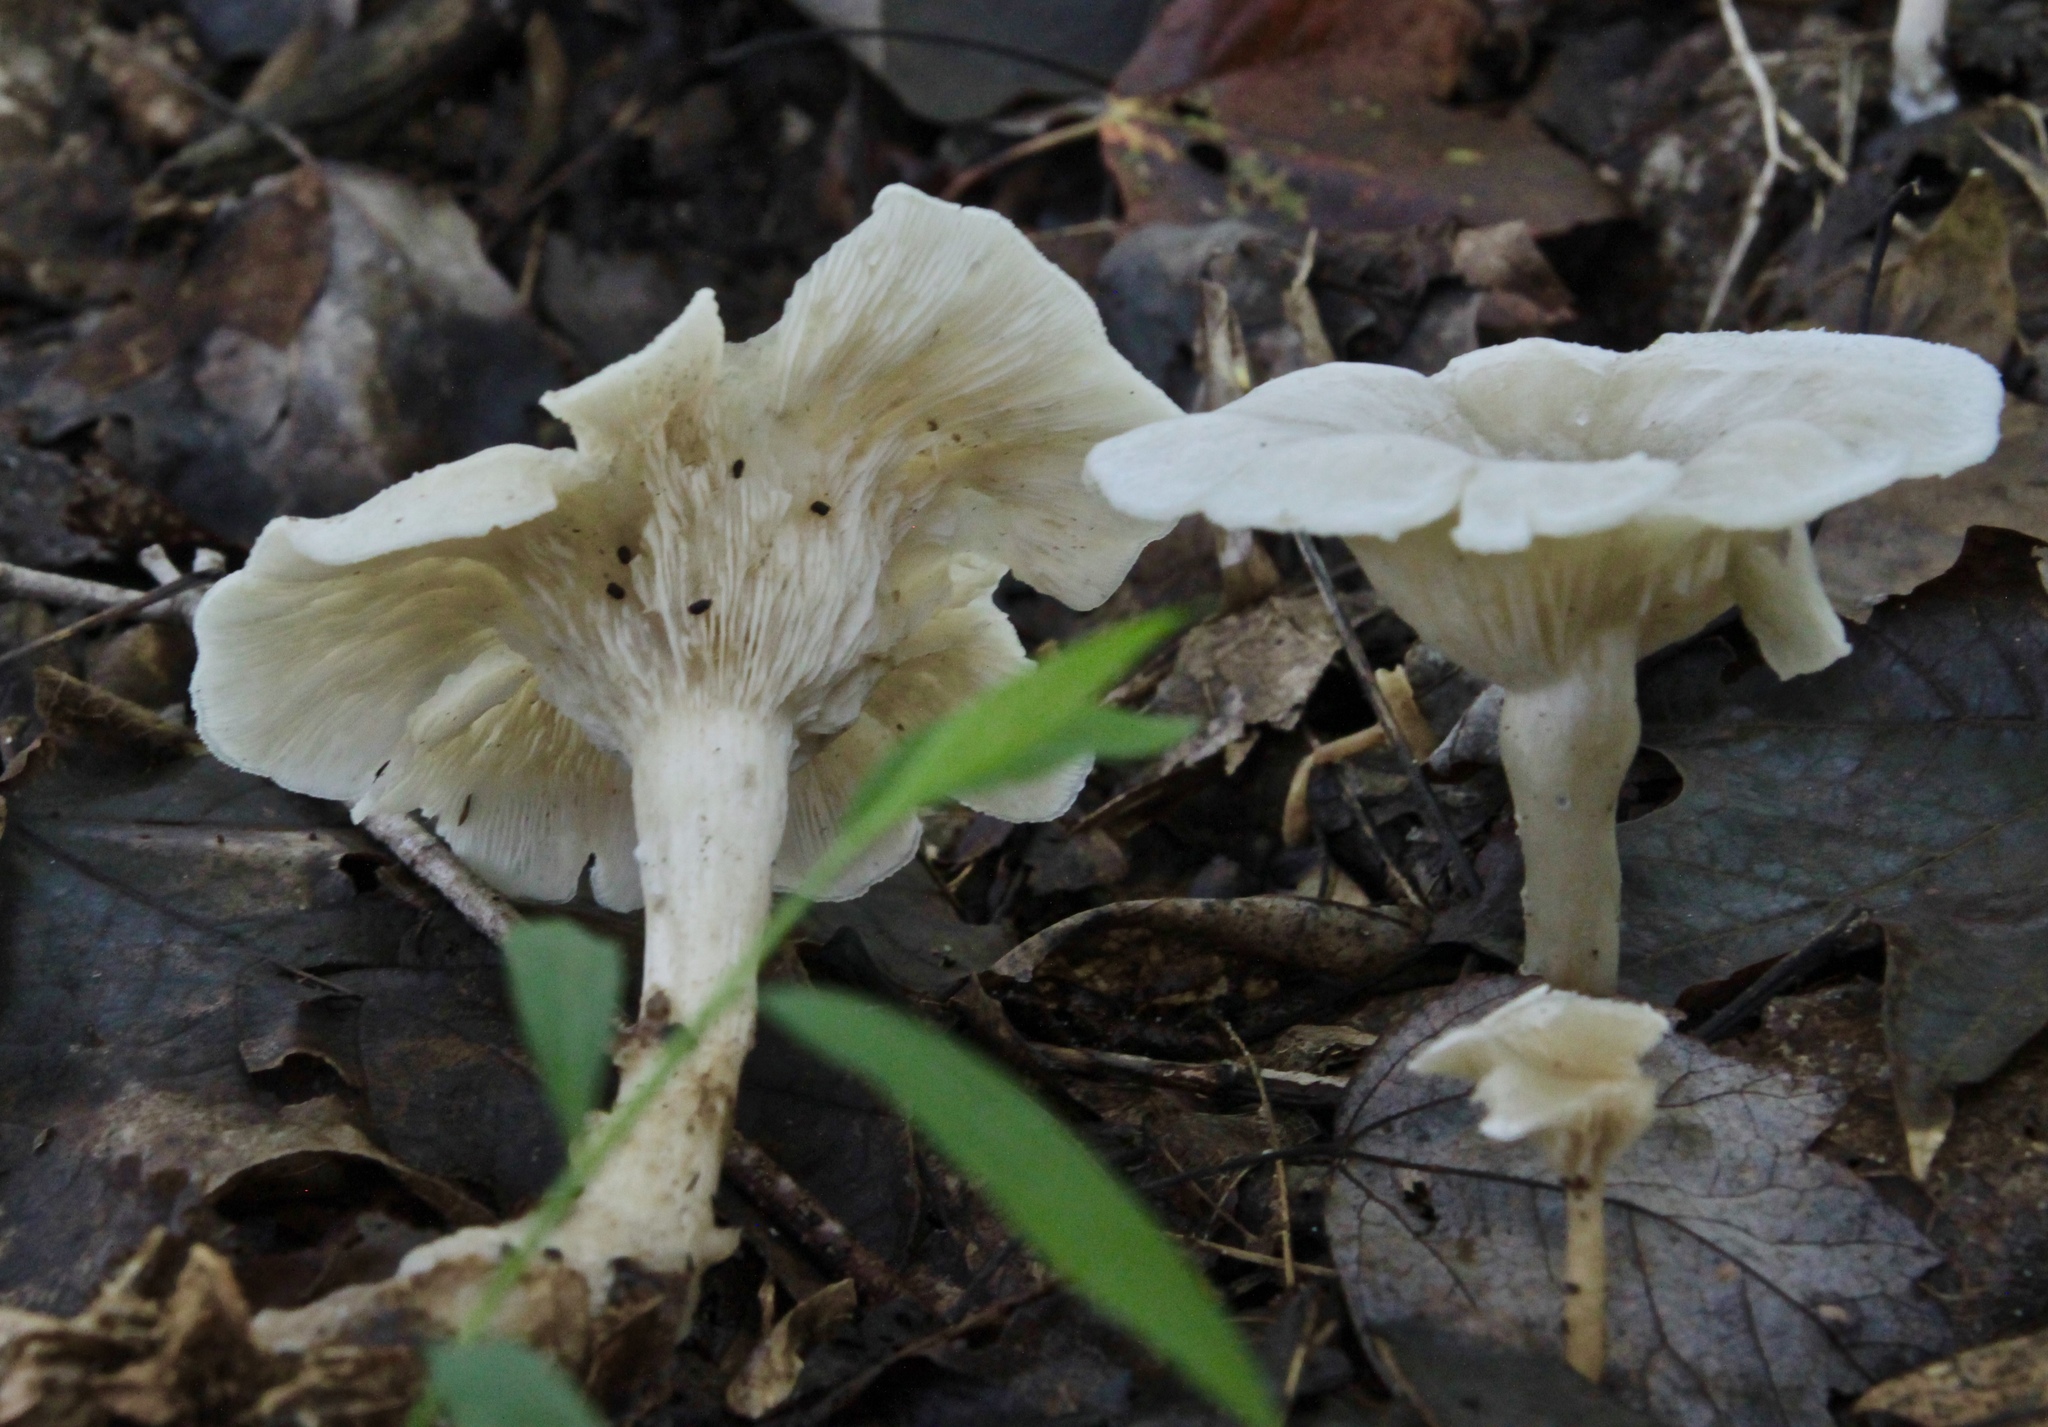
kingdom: Fungi
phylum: Basidiomycota
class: Agaricomycetes
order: Agaricales
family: Tricholomataceae
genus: Infundibulicybe
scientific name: Infundibulicybe gibba
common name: Common funnel
